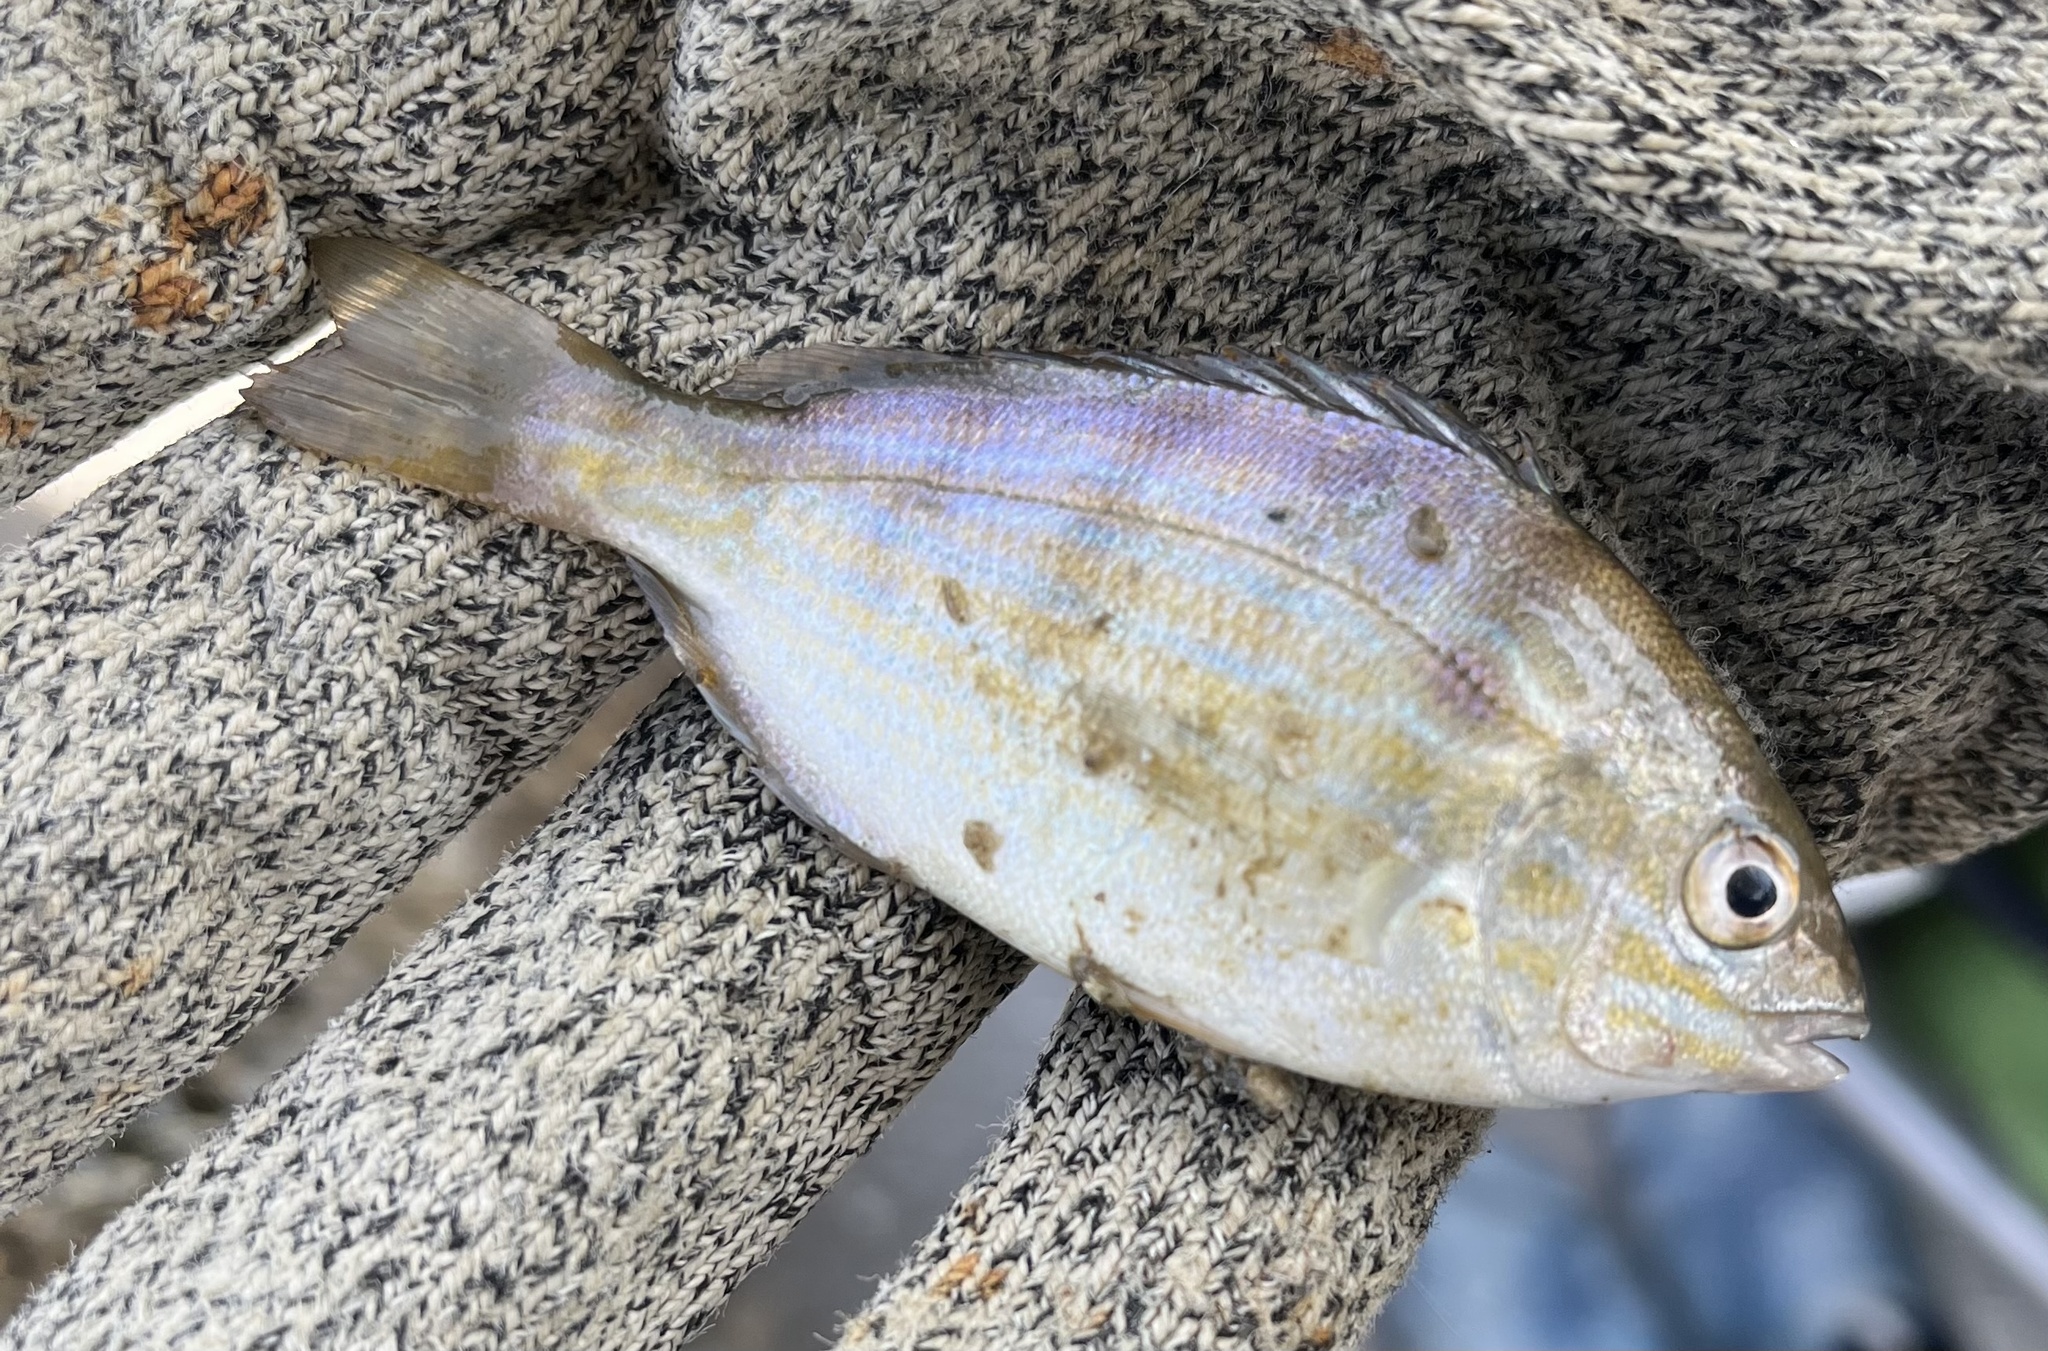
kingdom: Animalia
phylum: Chordata
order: Perciformes
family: Sparidae
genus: Lagodon
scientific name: Lagodon rhomboides
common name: Pinfish
